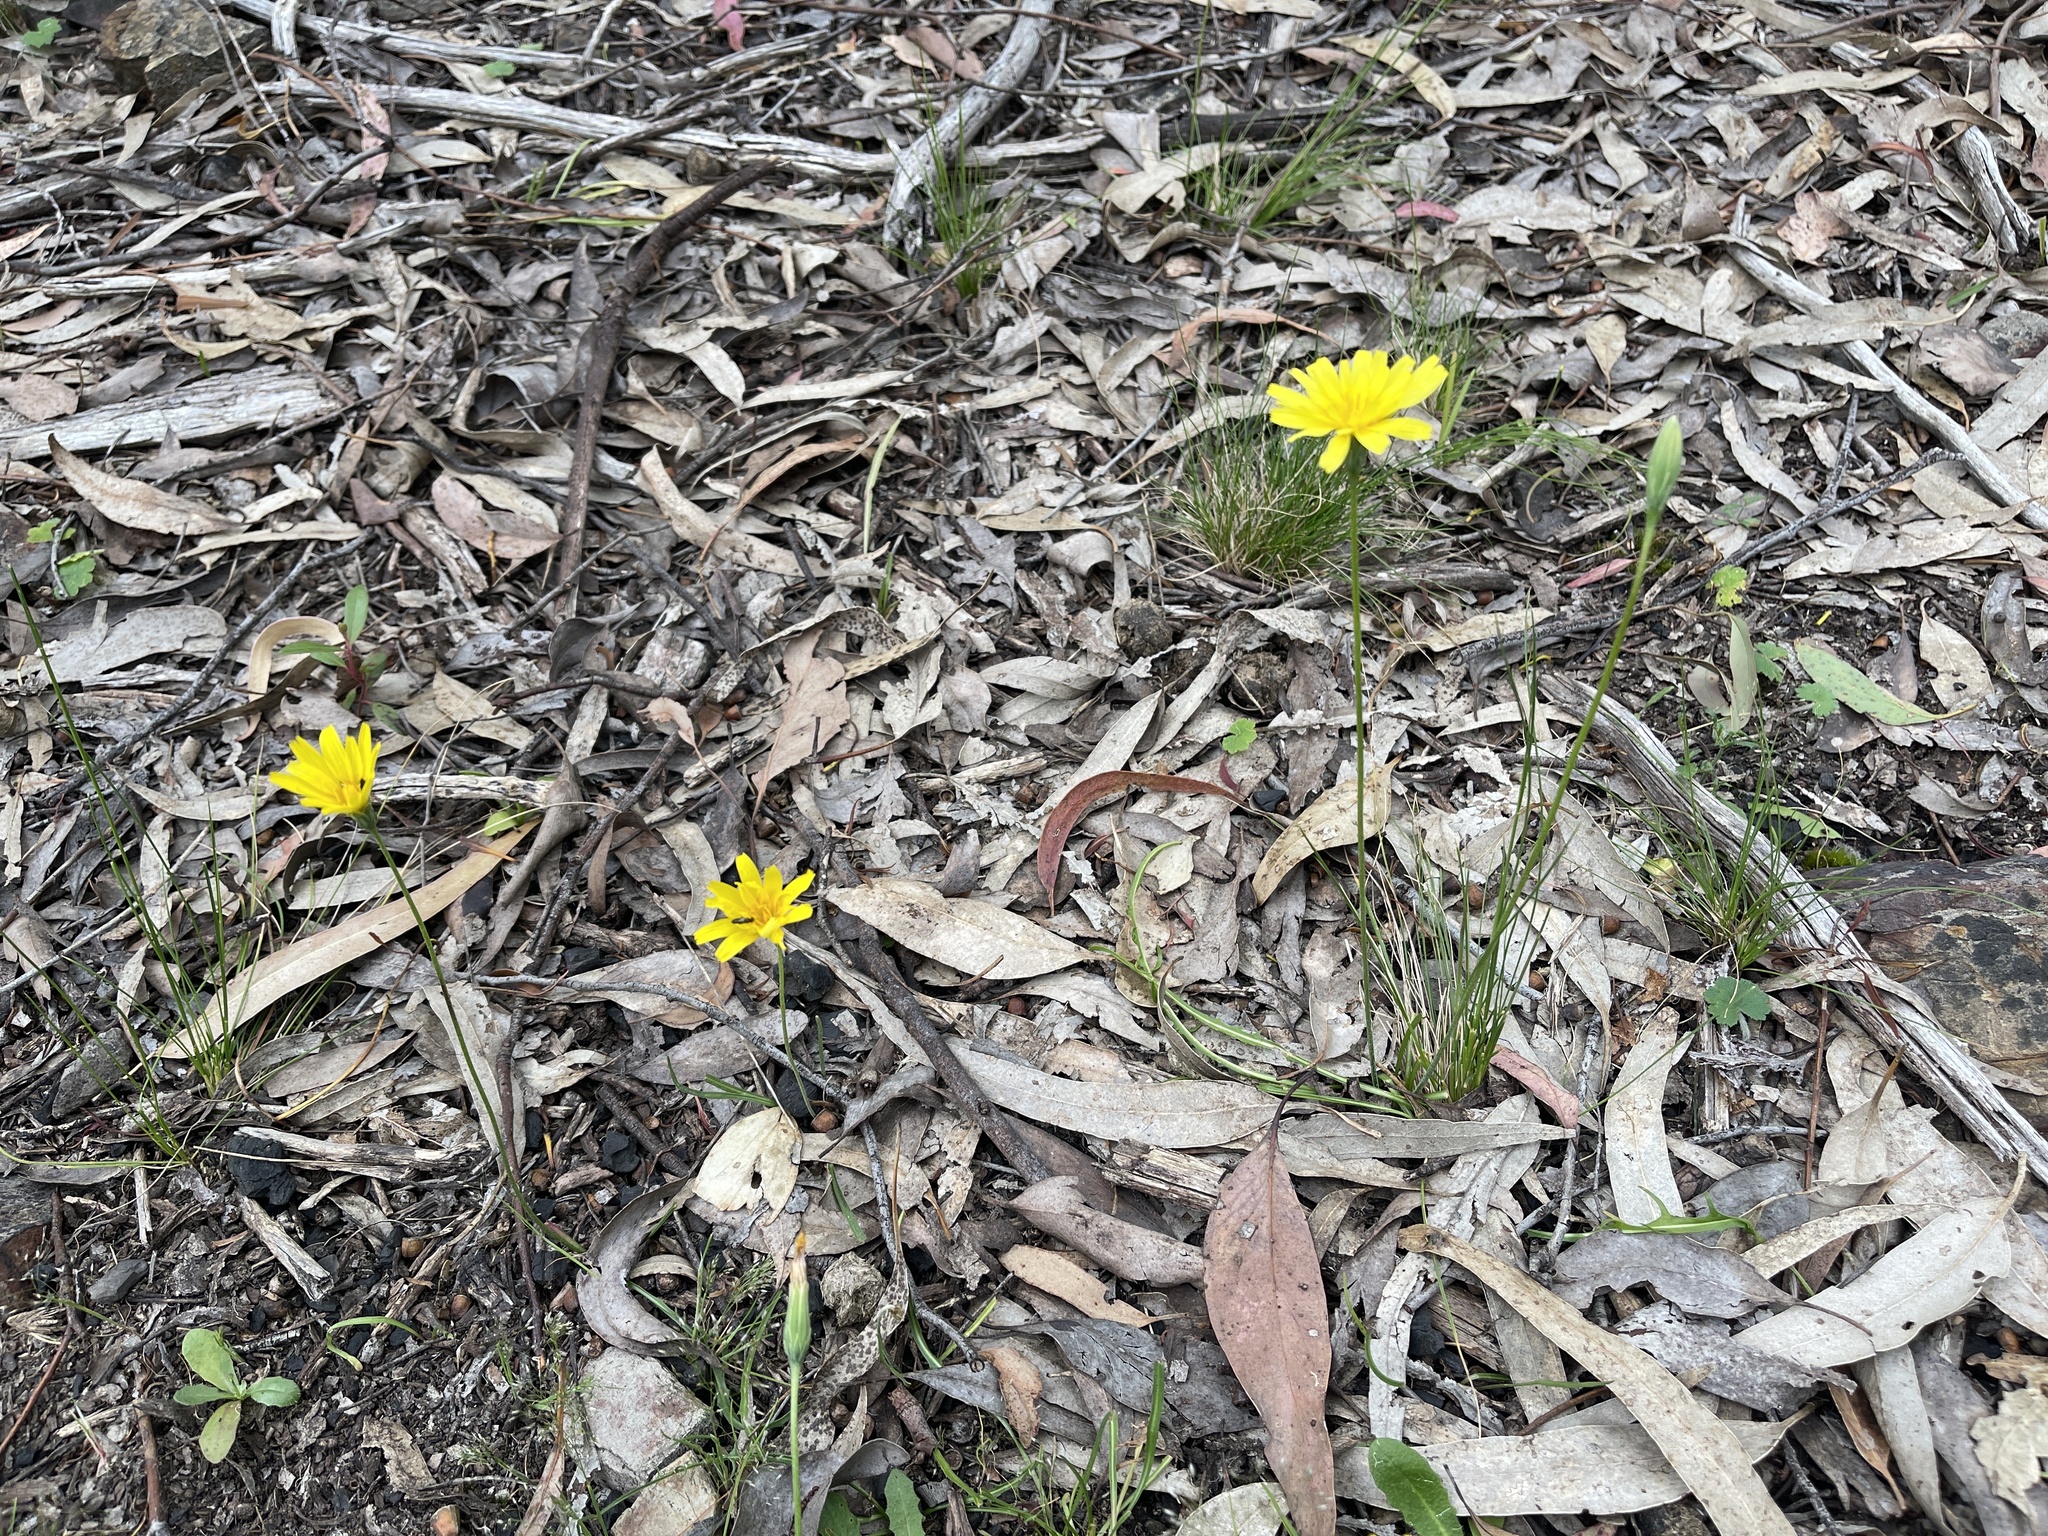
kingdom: Plantae
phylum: Tracheophyta
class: Magnoliopsida
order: Asterales
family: Asteraceae
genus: Microseris
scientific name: Microseris lanceolata
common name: Yam daisy
